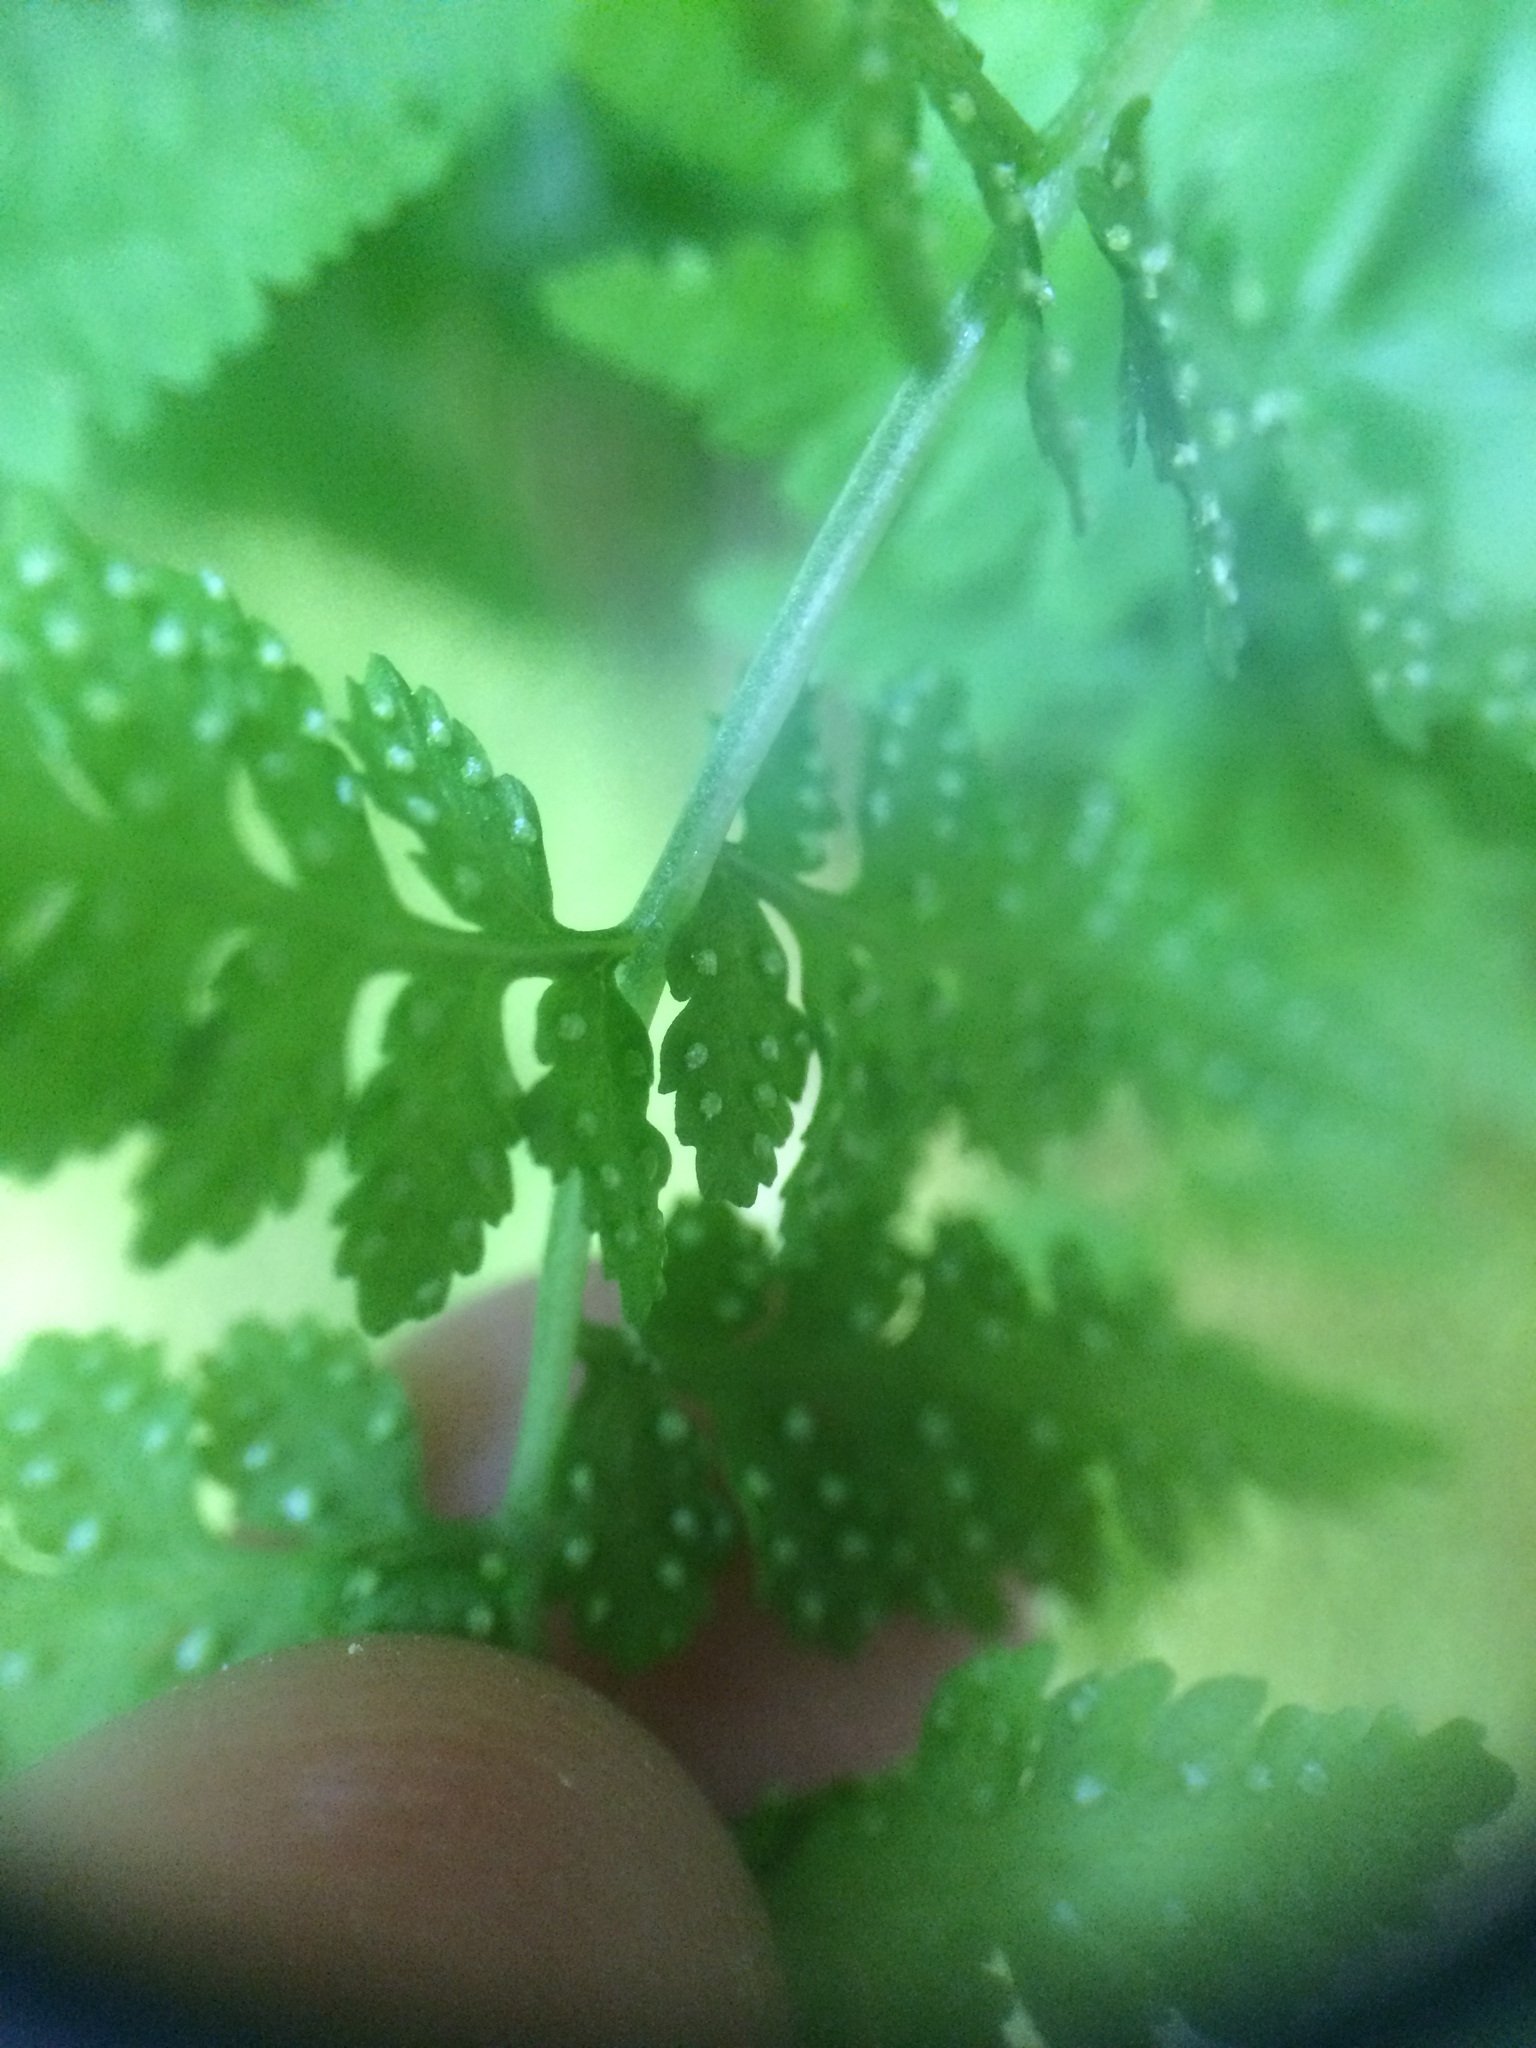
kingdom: Plantae
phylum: Tracheophyta
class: Polypodiopsida
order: Polypodiales
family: Cystopteridaceae
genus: Cystopteris
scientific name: Cystopteris fragilis
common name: Brittle bladder fern
